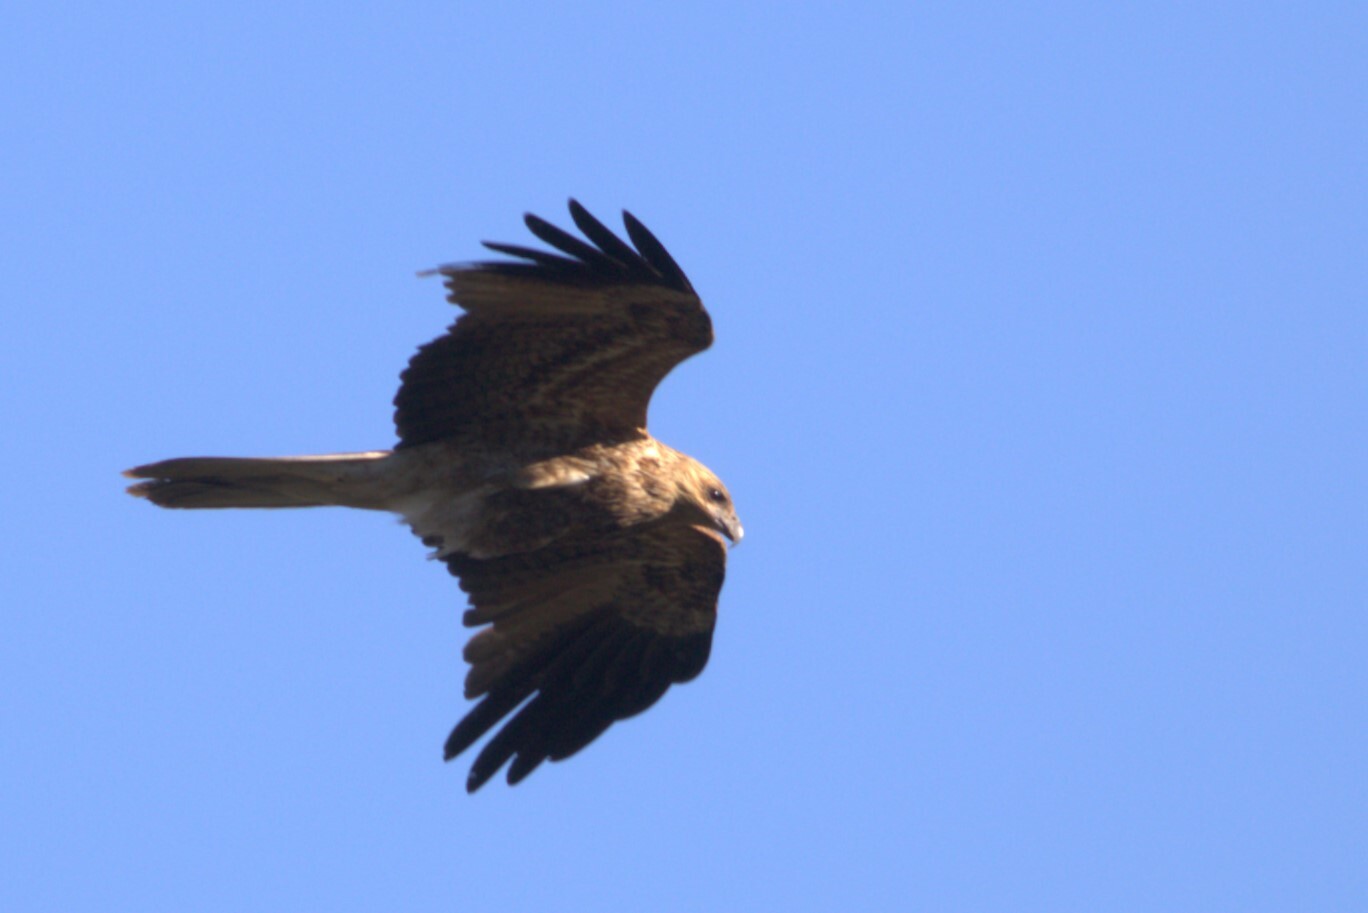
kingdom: Animalia
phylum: Chordata
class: Aves
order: Accipitriformes
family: Accipitridae
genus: Haliastur
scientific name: Haliastur sphenurus
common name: Whistling kite
